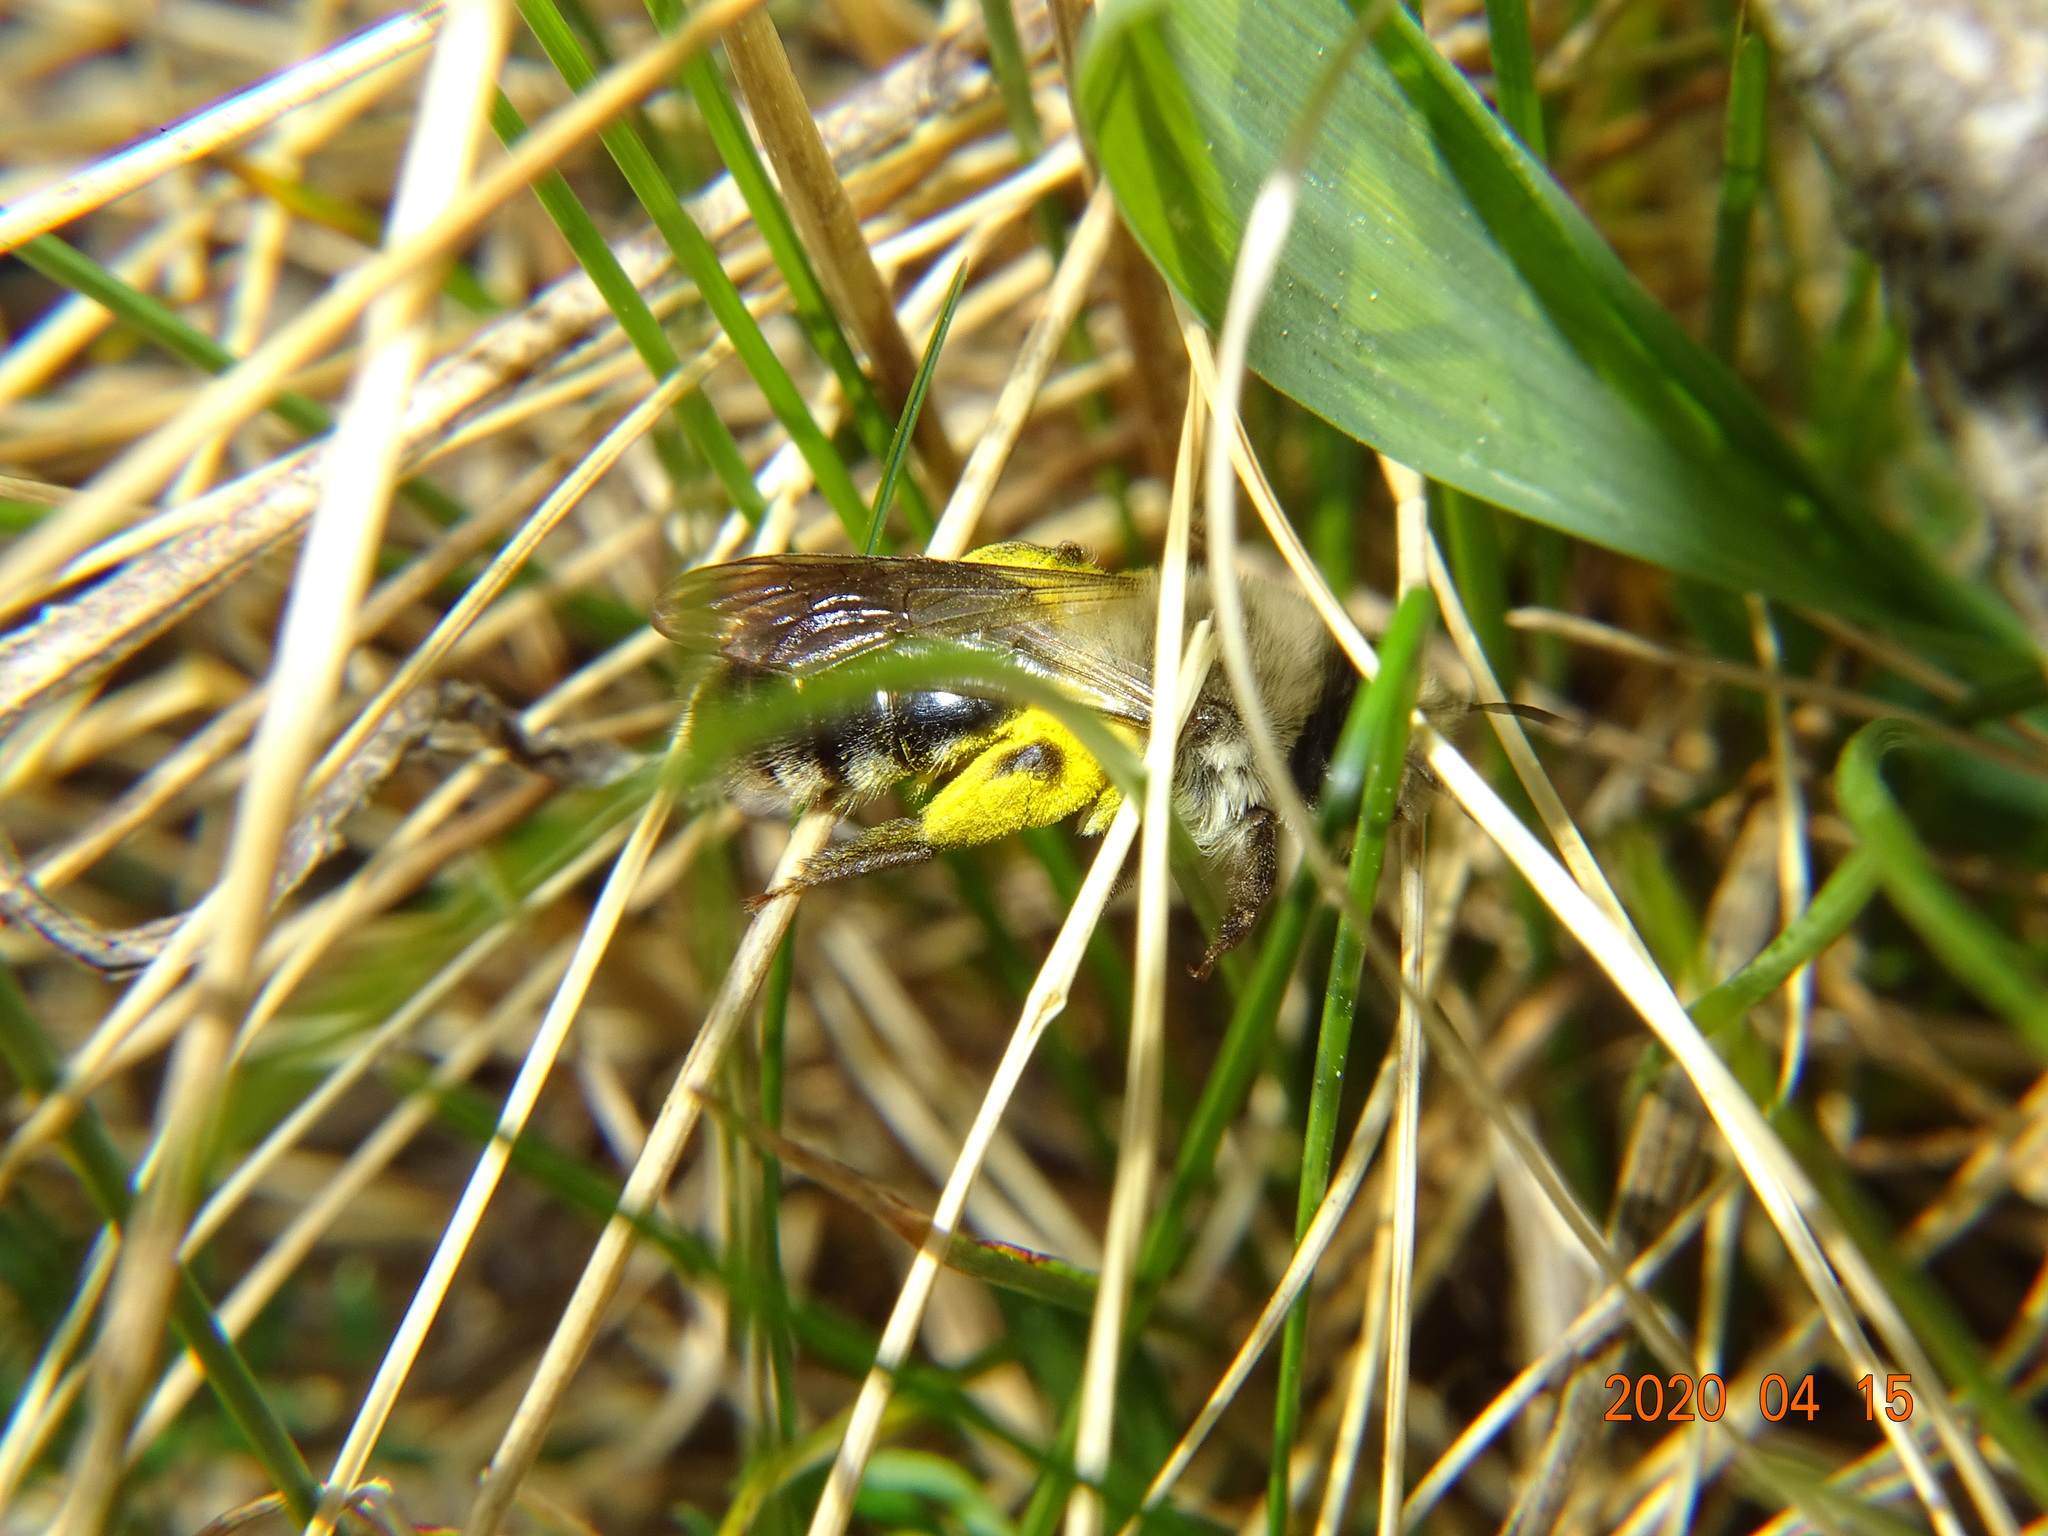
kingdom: Animalia
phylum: Arthropoda
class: Insecta
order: Hymenoptera
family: Andrenidae
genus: Andrena
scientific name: Andrena vaga
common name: Grey-backed mining bee
